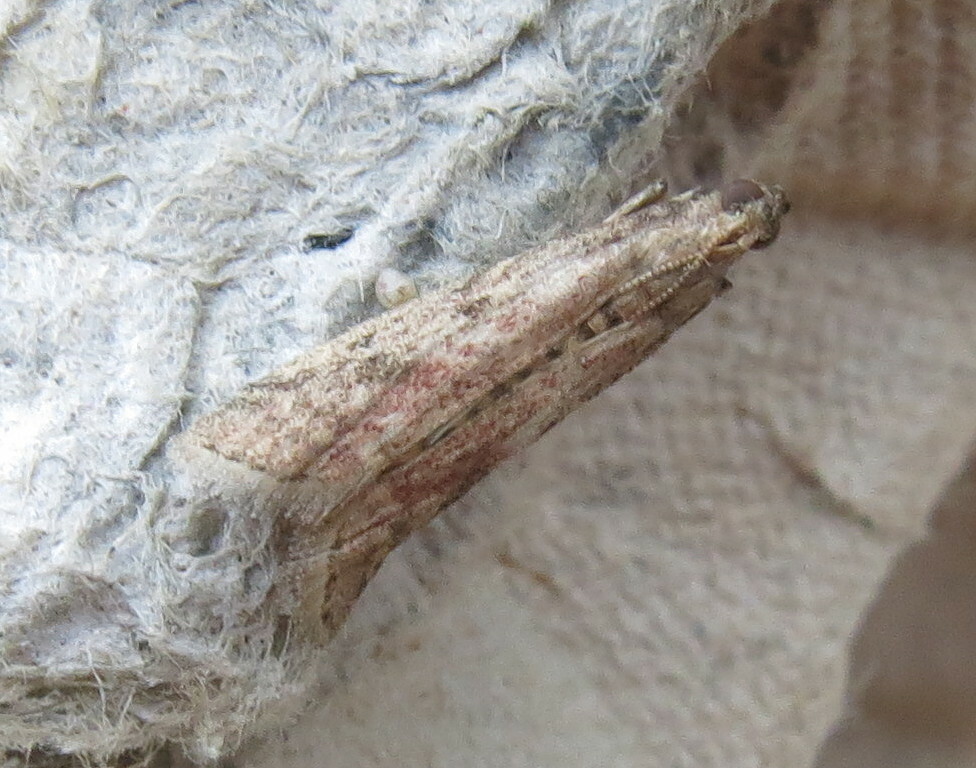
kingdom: Animalia
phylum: Arthropoda
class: Insecta
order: Lepidoptera
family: Pyralidae
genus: Ephestia
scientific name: Ephestia woodiella
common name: False cacao moth
